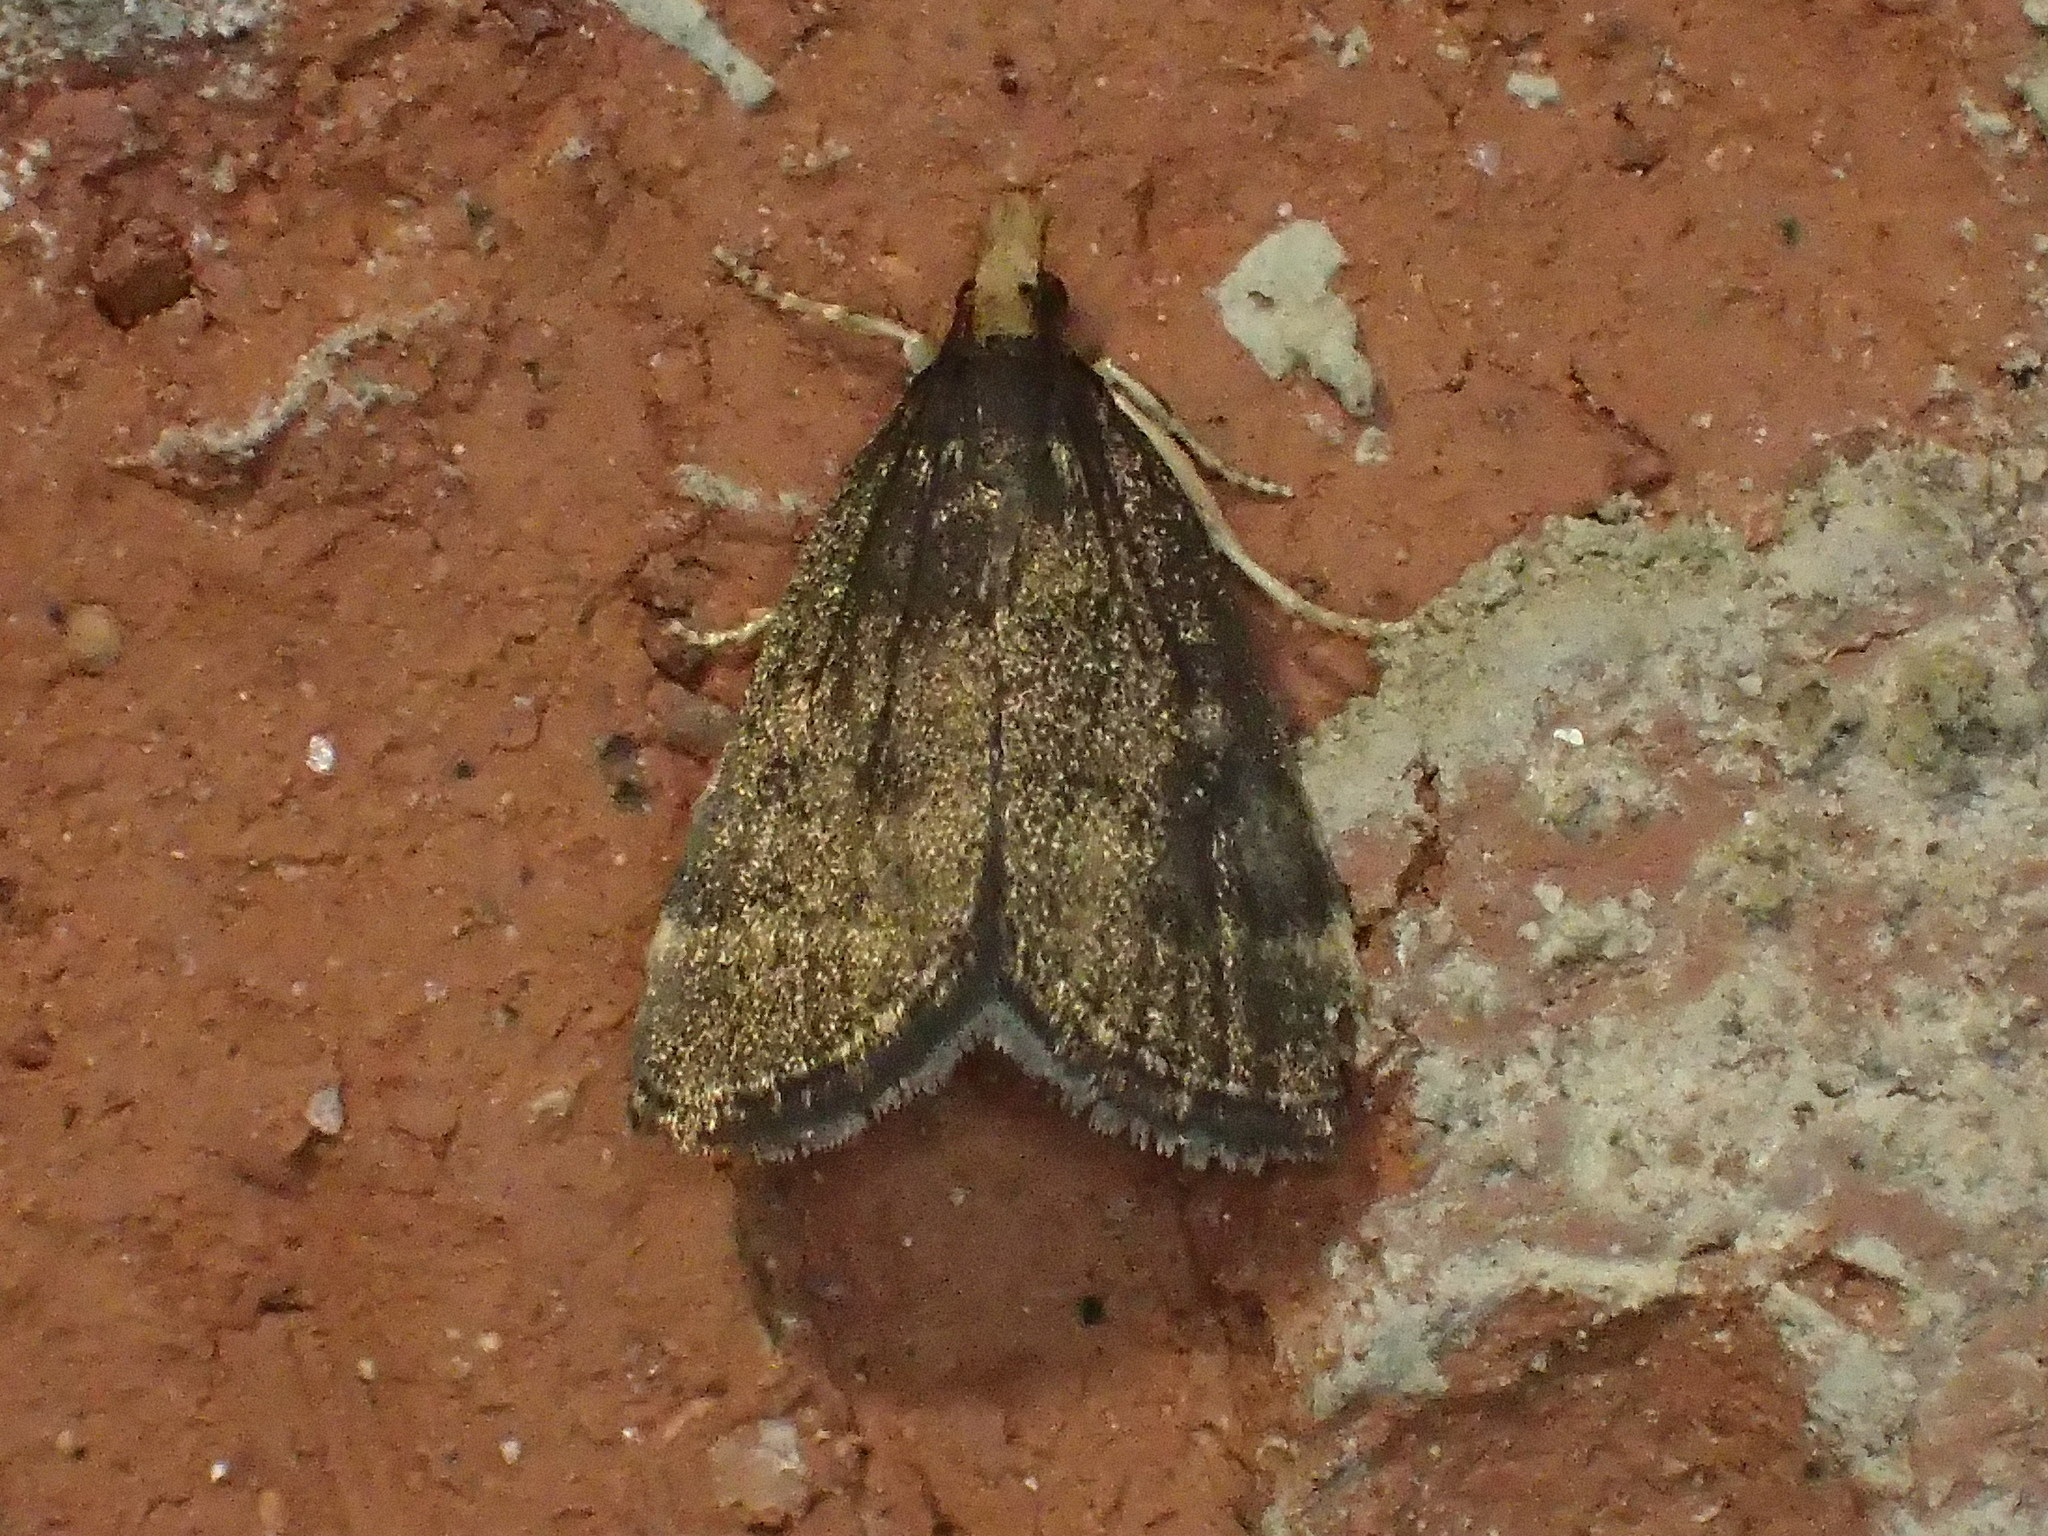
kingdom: Animalia
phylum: Arthropoda
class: Insecta
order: Lepidoptera
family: Crambidae
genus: Pyrausta
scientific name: Pyrausta merrickalis
